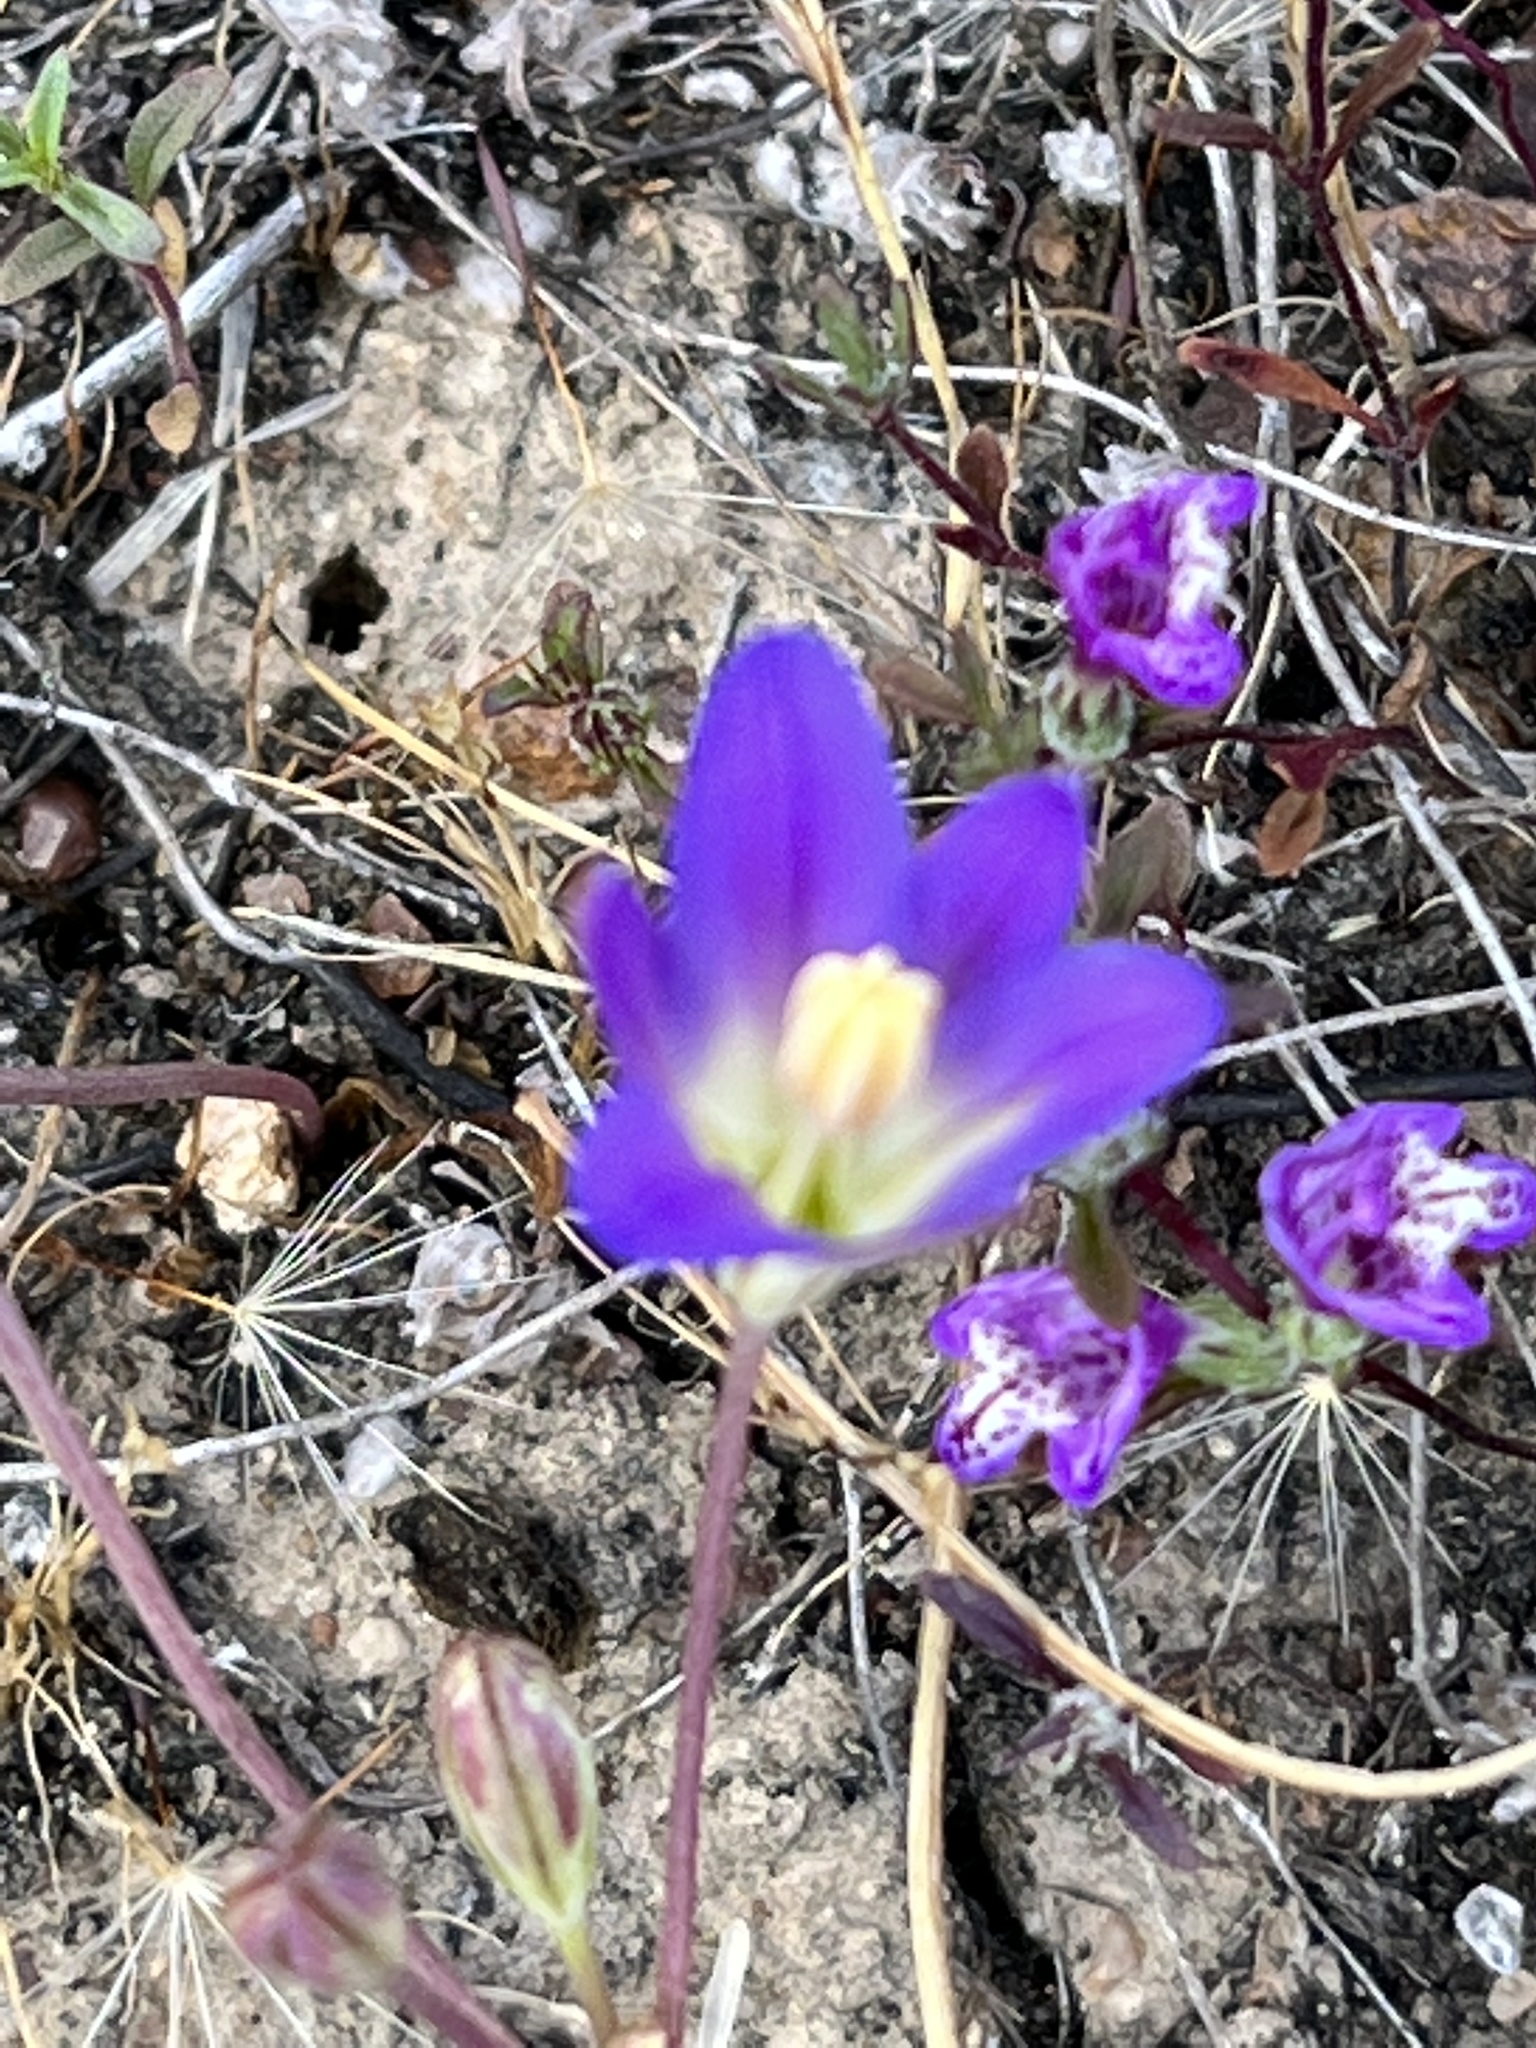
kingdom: Plantae
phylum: Tracheophyta
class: Liliopsida
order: Asparagales
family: Asparagaceae
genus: Brodiaea
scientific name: Brodiaea orcuttii
